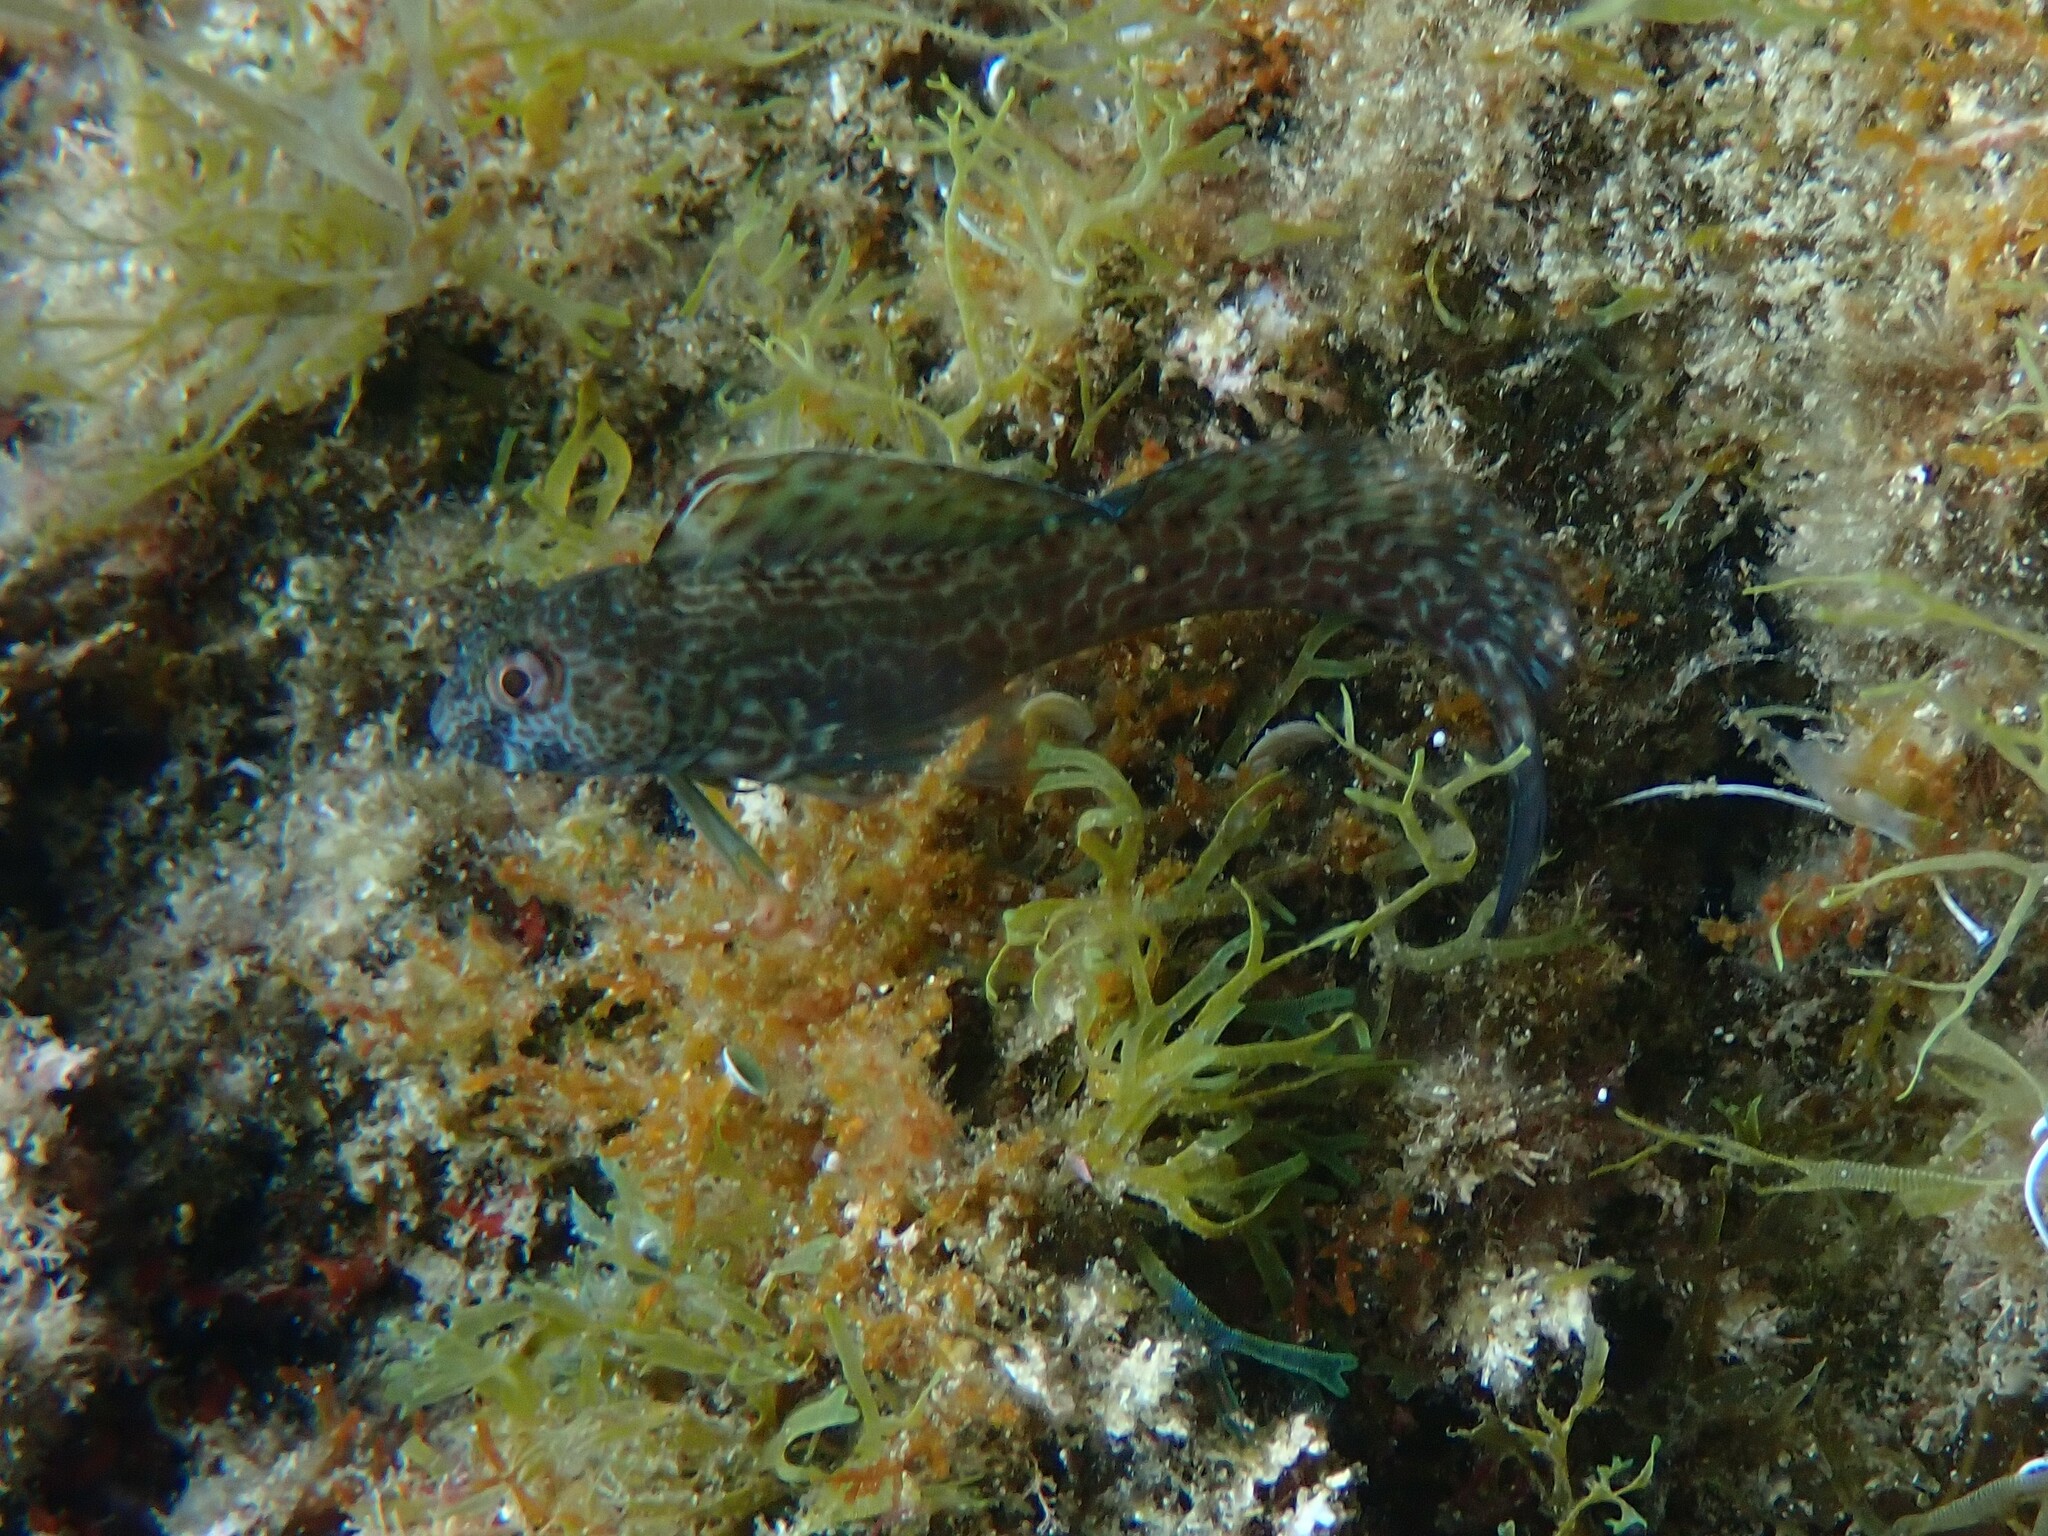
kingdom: Animalia
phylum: Chordata
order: Perciformes
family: Blenniidae
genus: Parablennius
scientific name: Parablennius pilicornis
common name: Ringneck blenny
